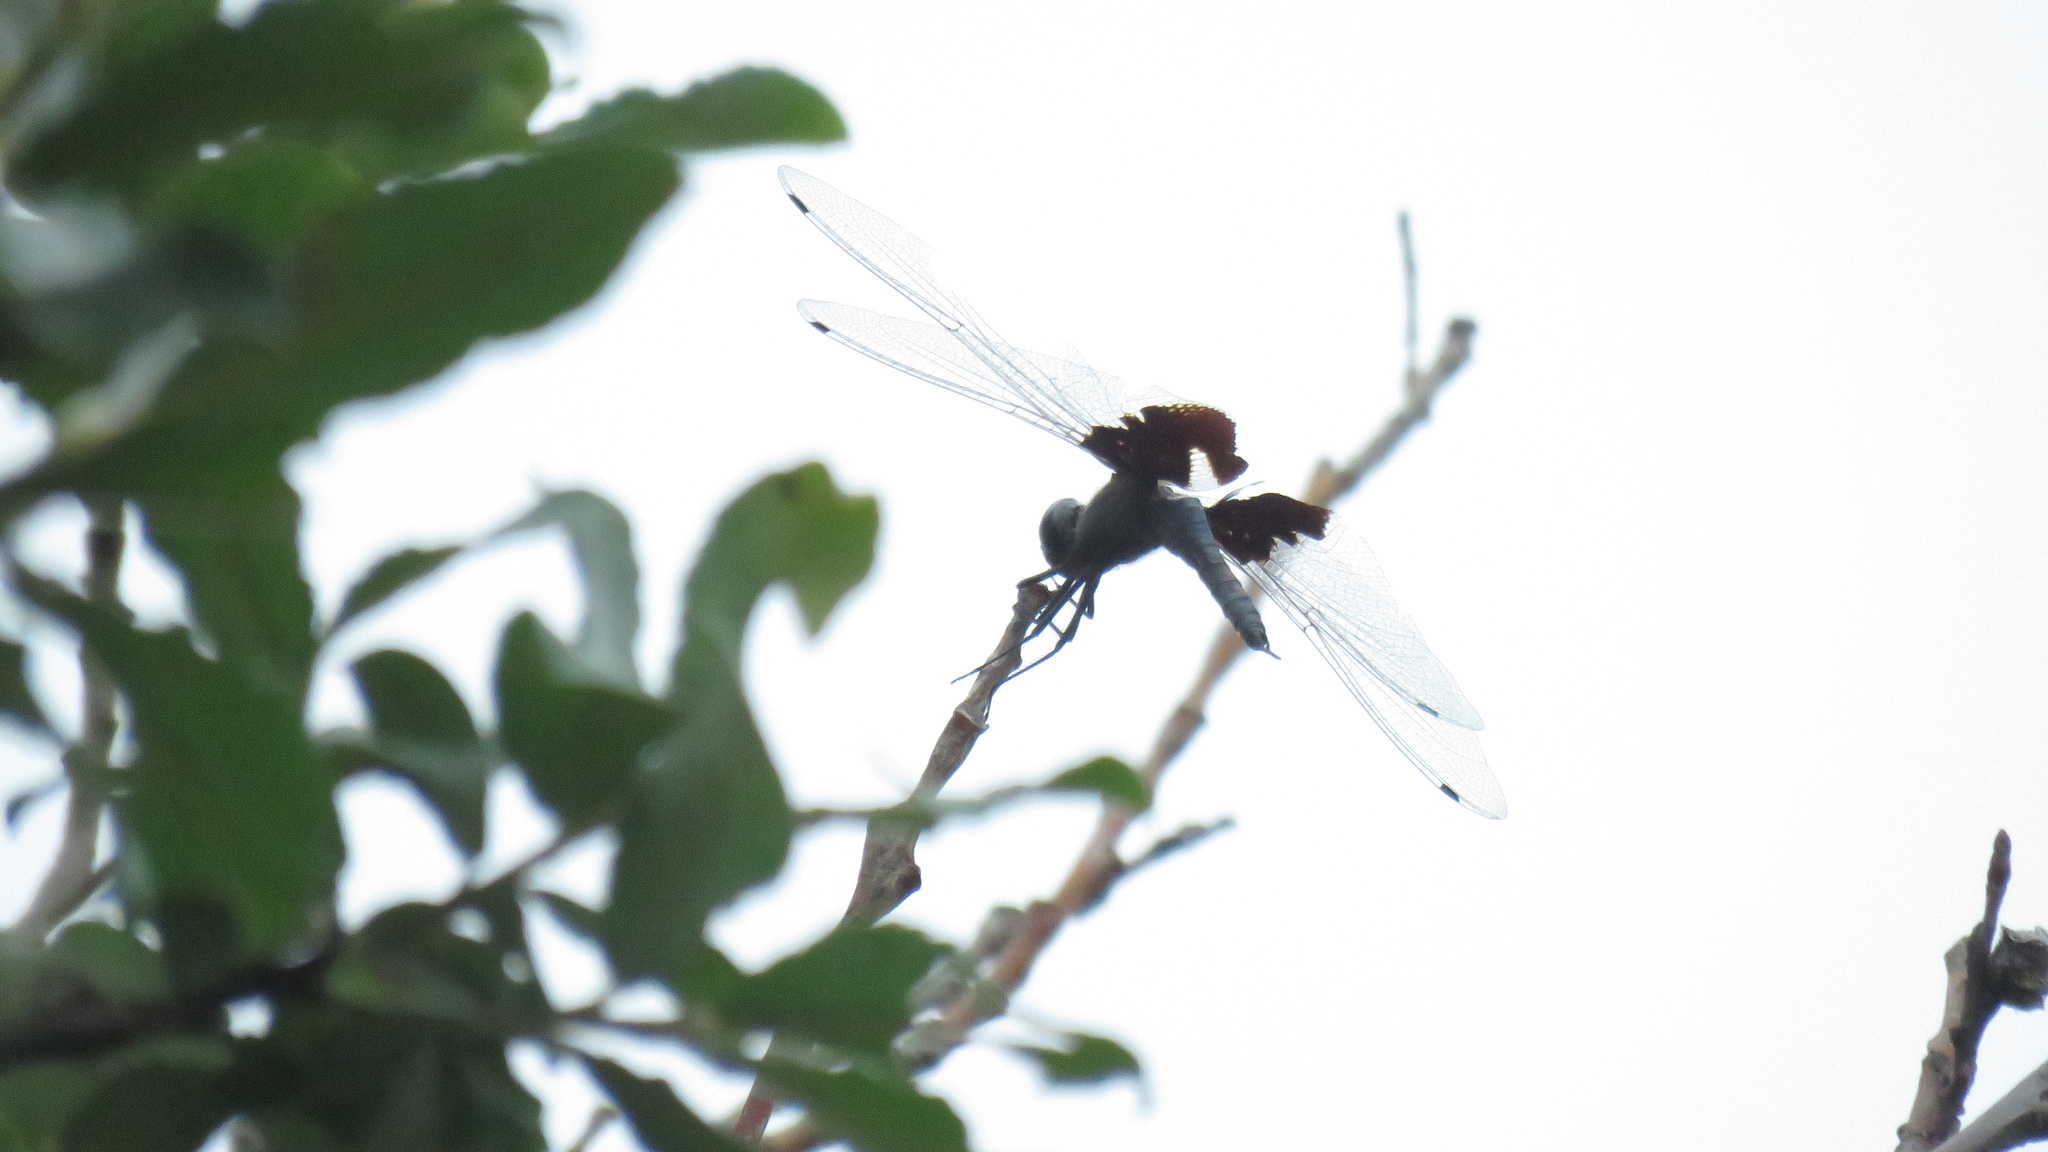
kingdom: Animalia
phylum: Arthropoda
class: Insecta
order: Odonata
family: Libellulidae
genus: Tramea
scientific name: Tramea lacerata
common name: Black saddlebags
